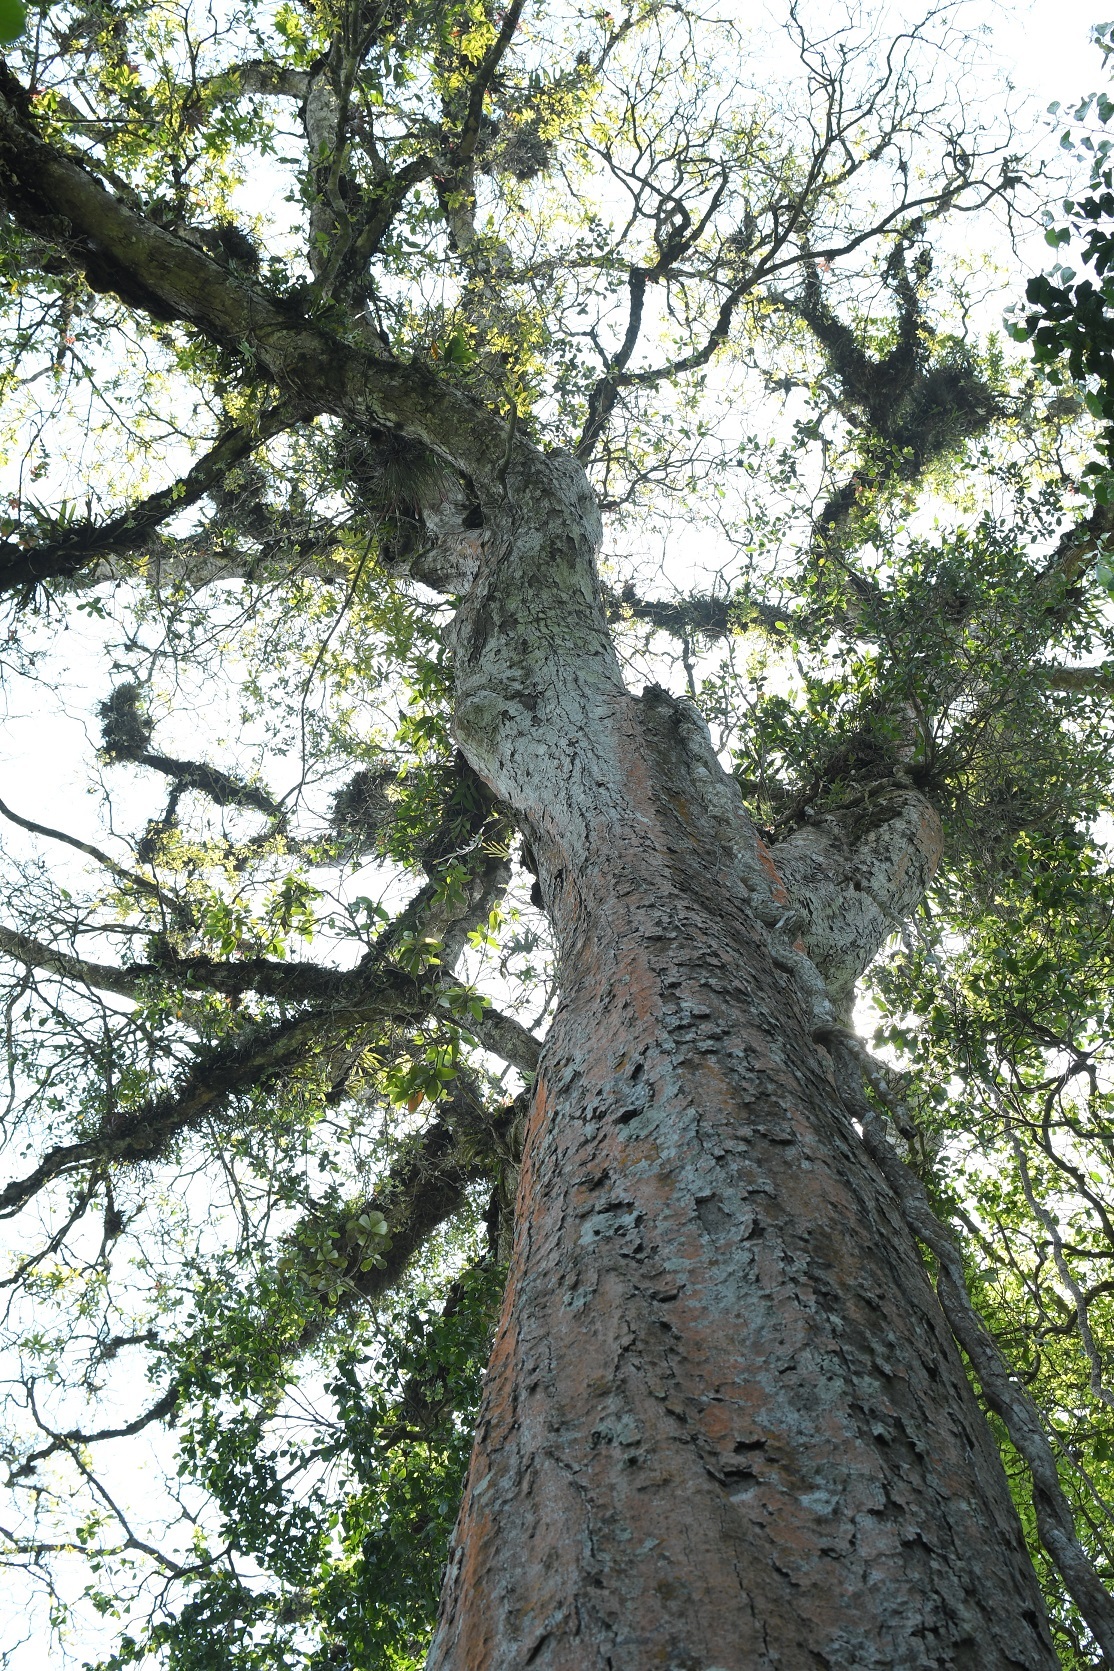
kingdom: Plantae
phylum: Tracheophyta
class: Magnoliopsida
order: Fagales
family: Fagaceae
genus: Quercus
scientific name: Quercus corrugata
